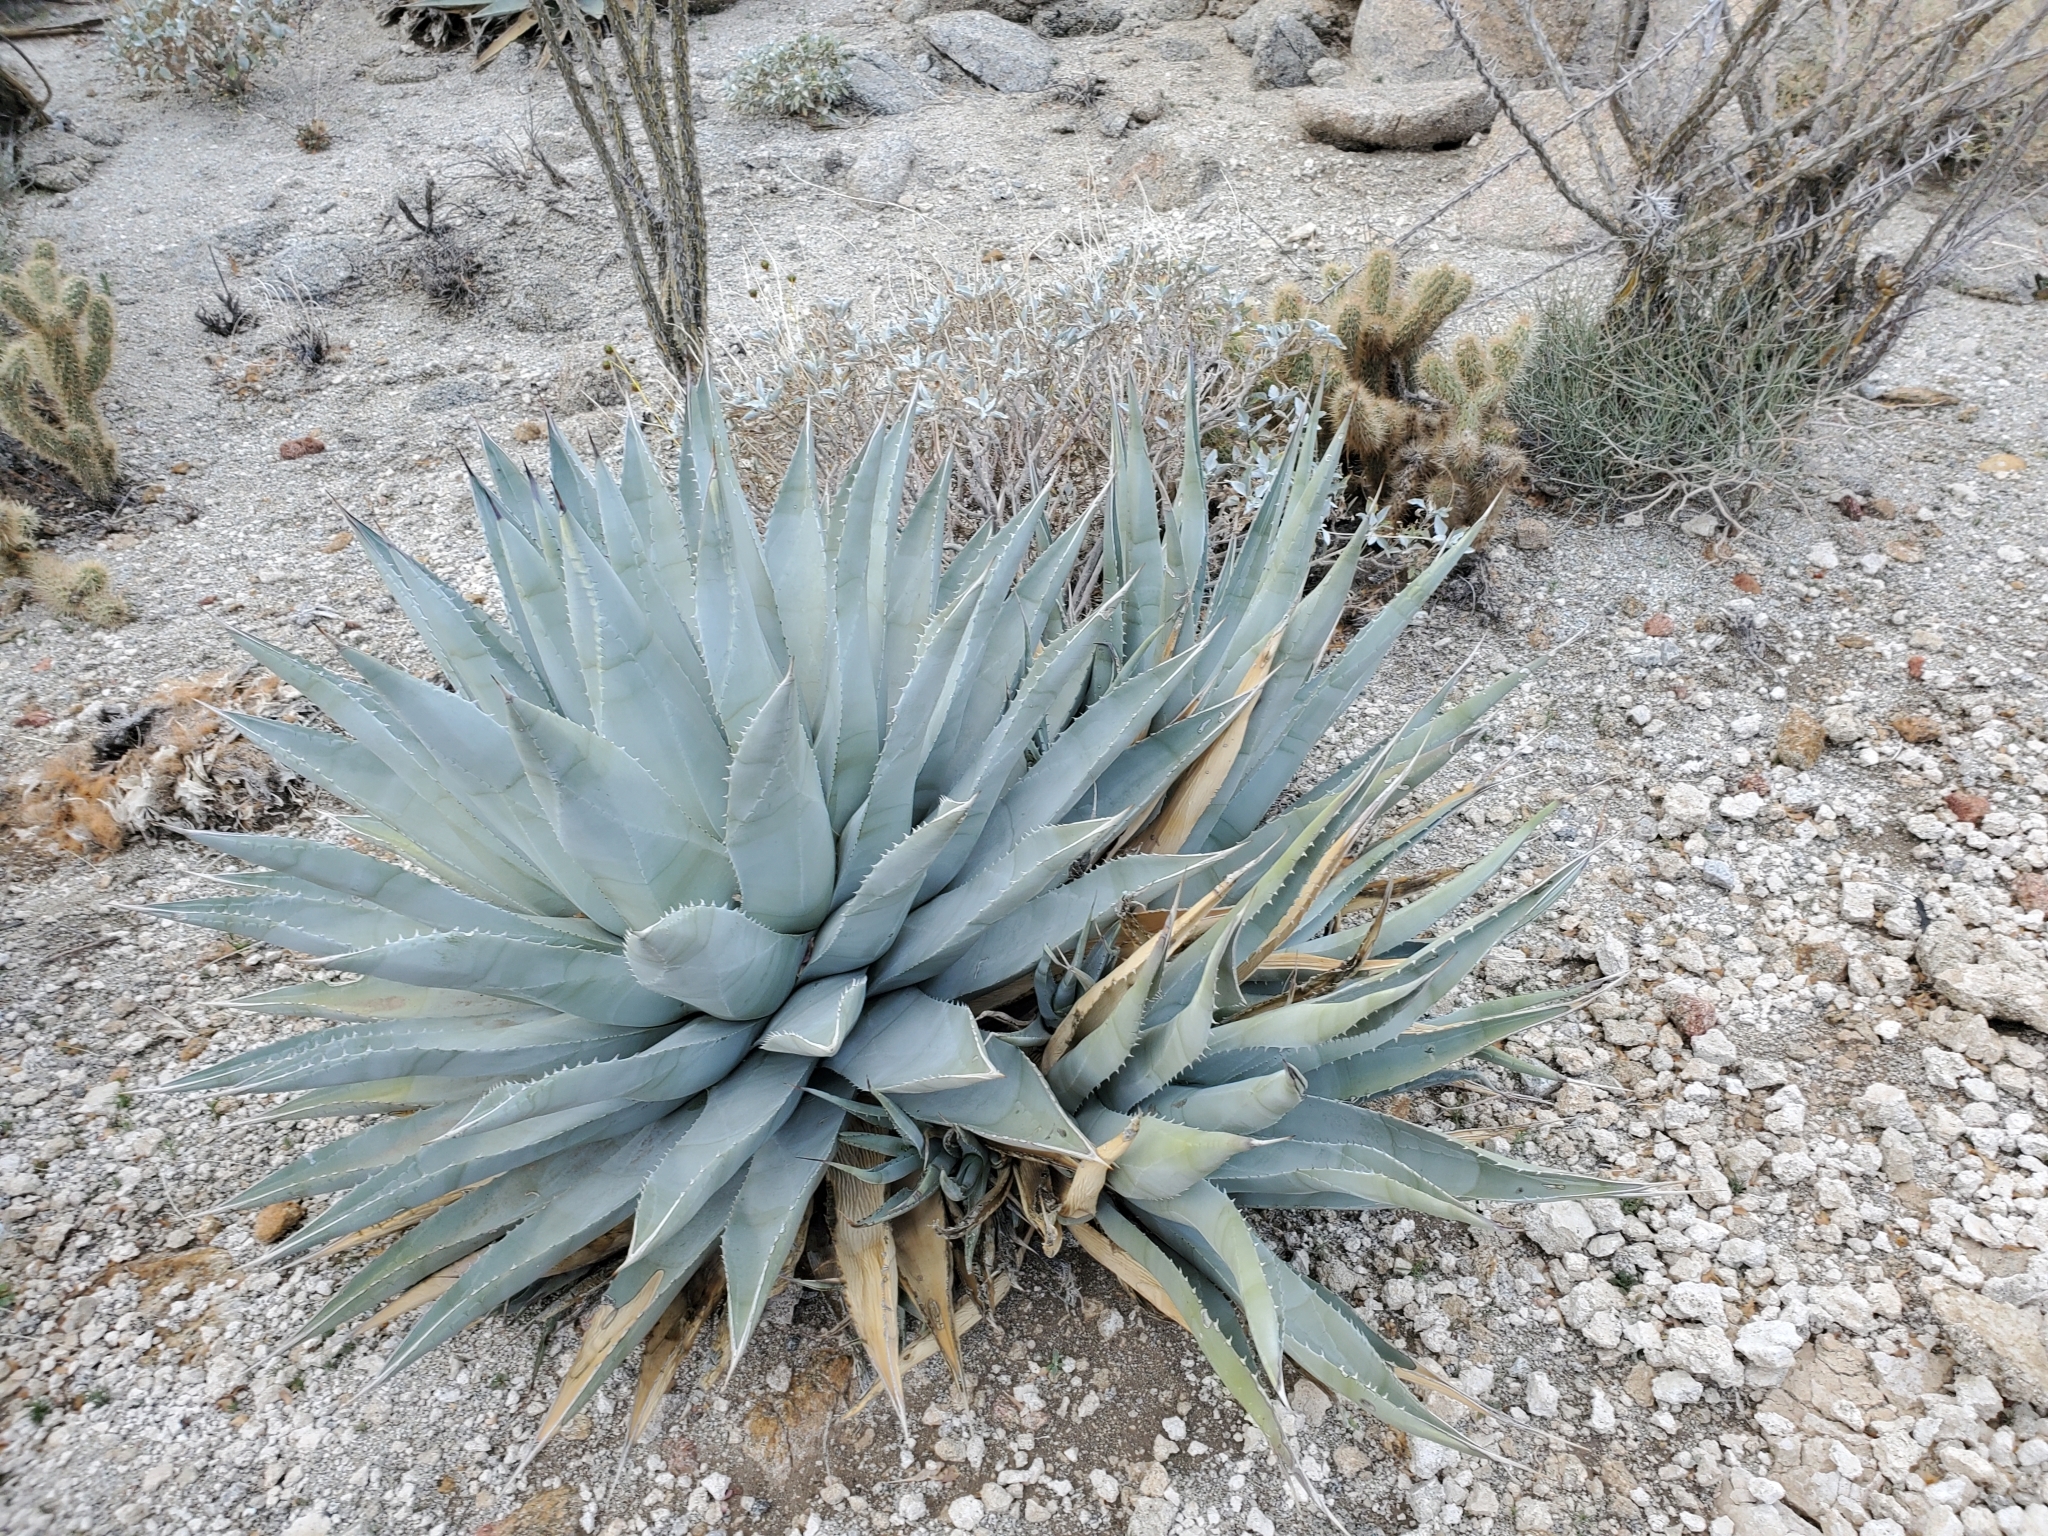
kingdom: Plantae
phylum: Tracheophyta
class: Liliopsida
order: Asparagales
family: Asparagaceae
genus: Agave
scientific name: Agave deserti
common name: Desert agave
